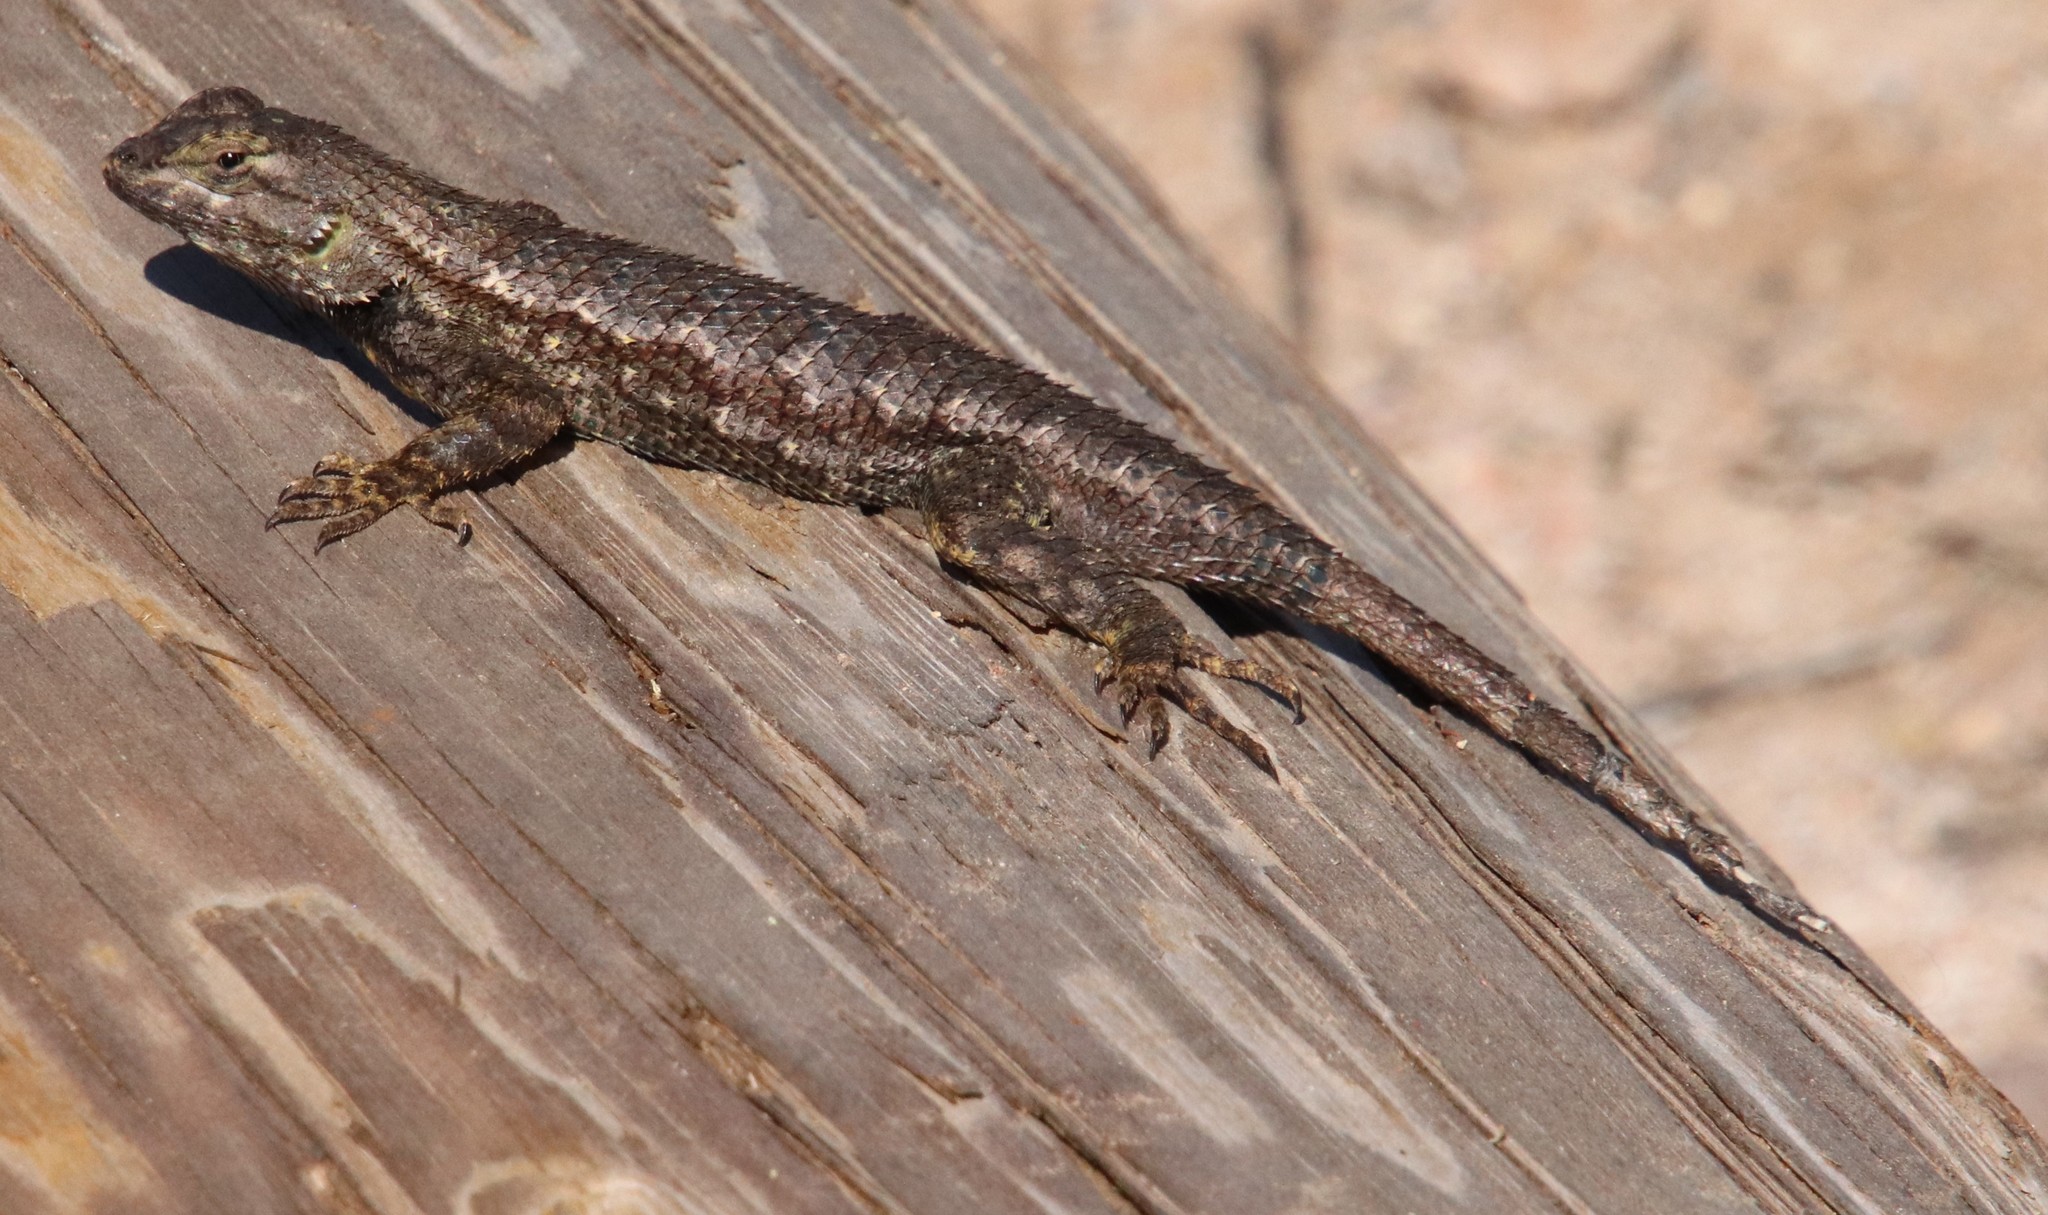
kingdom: Animalia
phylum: Chordata
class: Squamata
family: Phrynosomatidae
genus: Sceloporus
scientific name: Sceloporus occidentalis
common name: Western fence lizard
